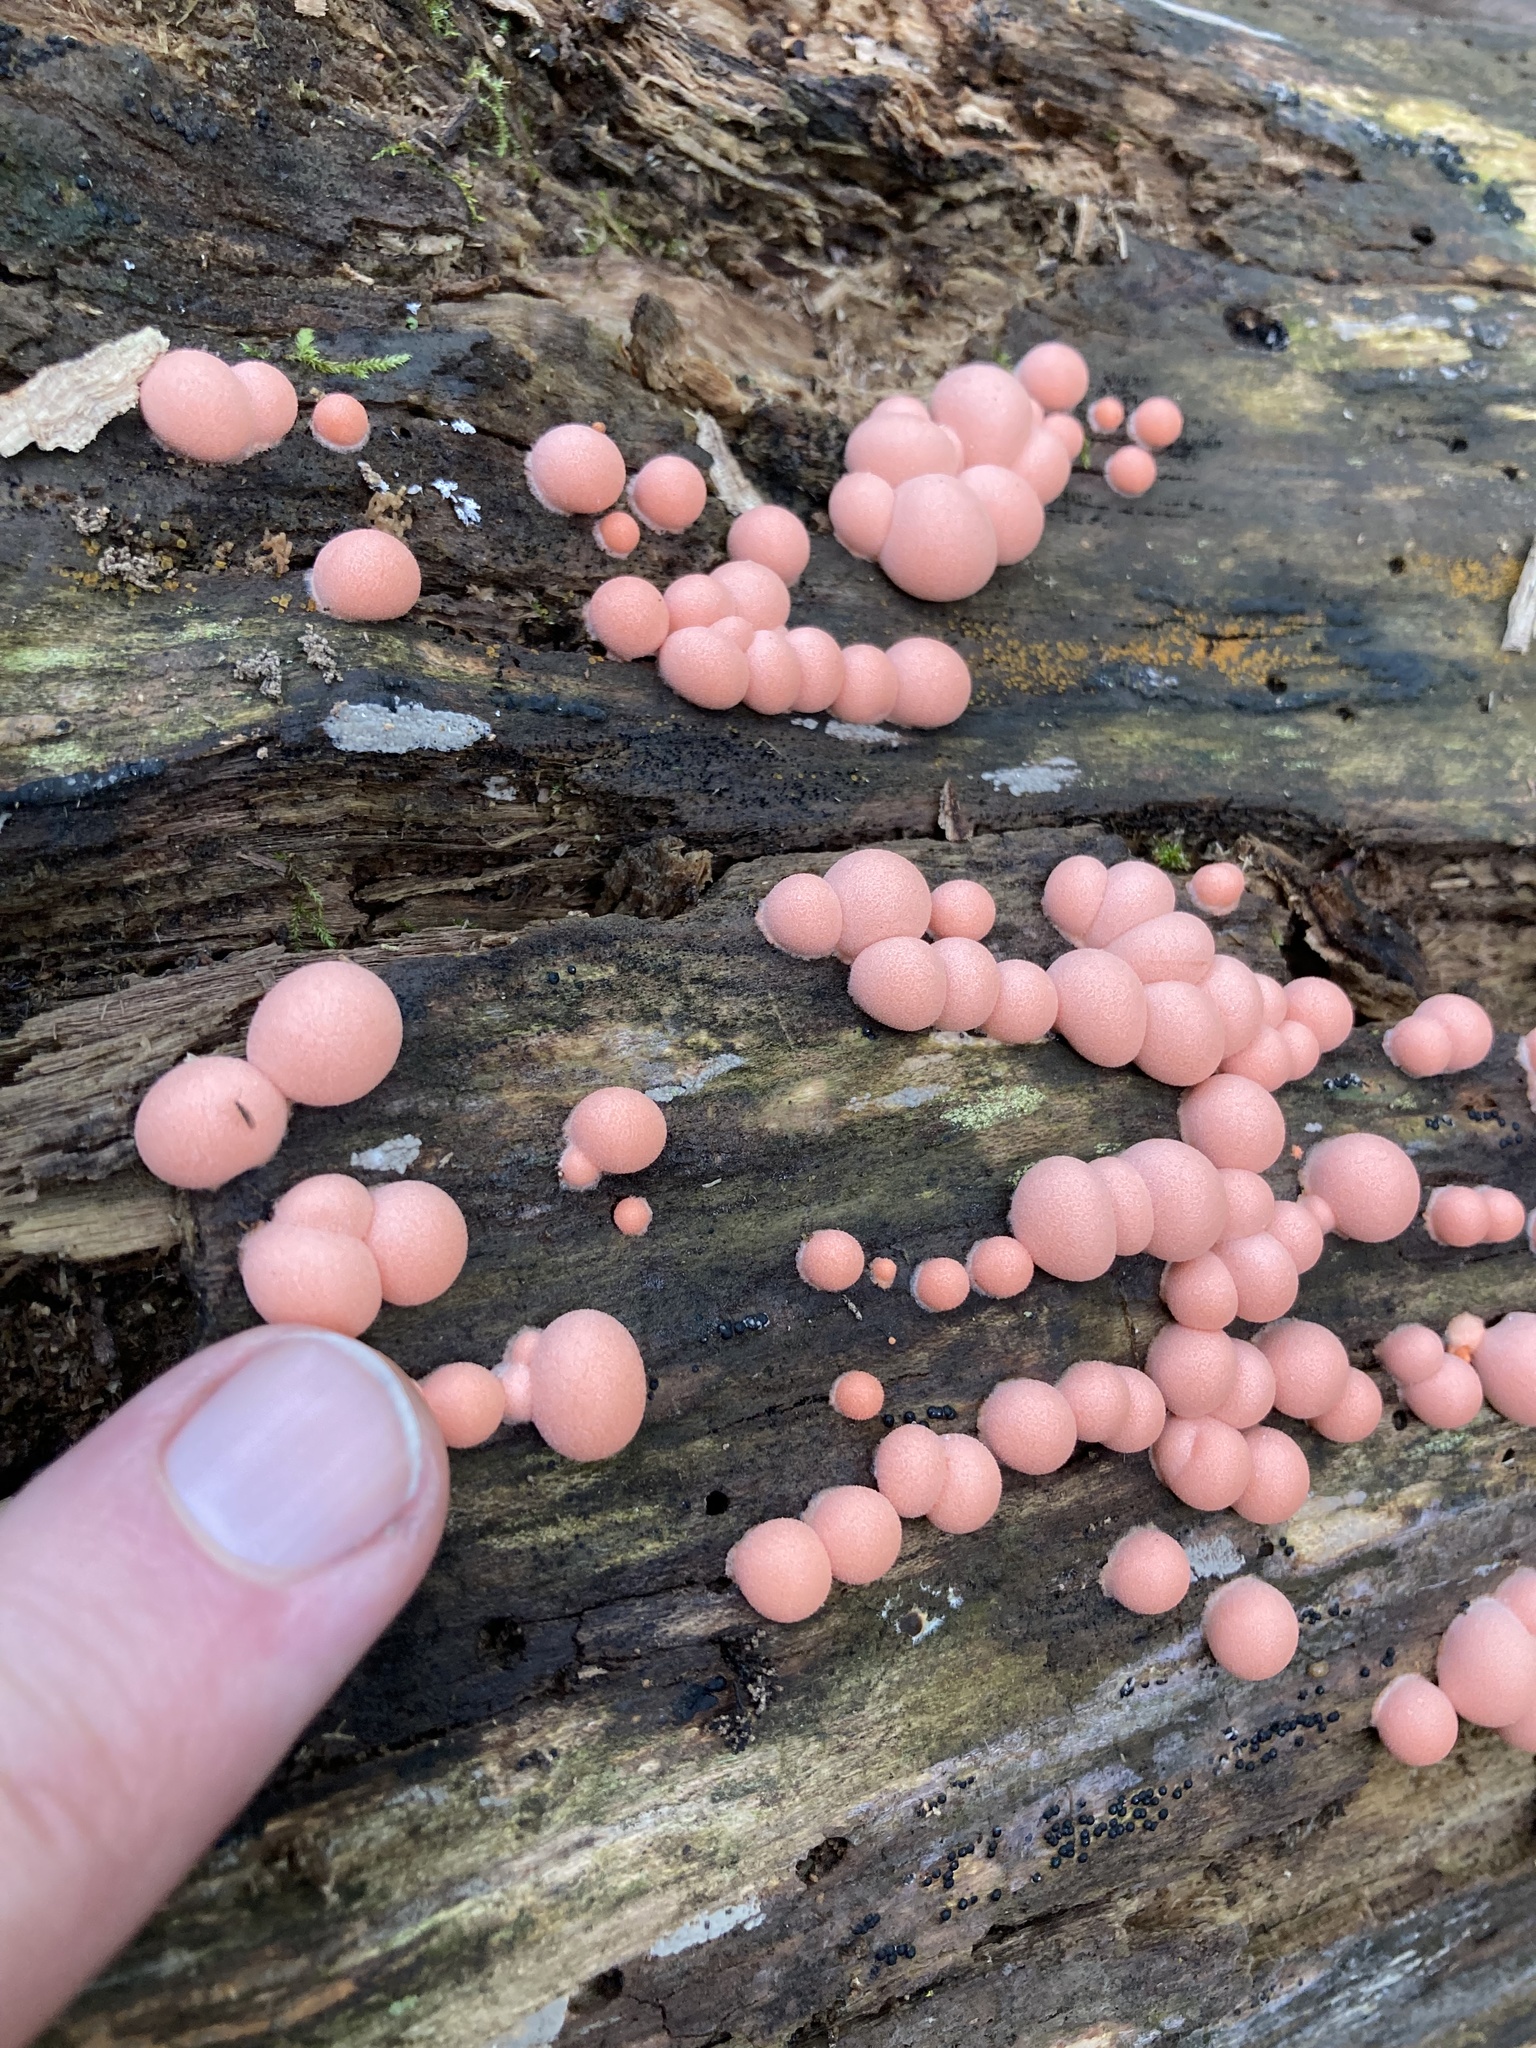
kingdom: Protozoa
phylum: Mycetozoa
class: Myxomycetes
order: Cribrariales
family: Tubiferaceae
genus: Lycogala
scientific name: Lycogala epidendrum
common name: Wolf's milk
